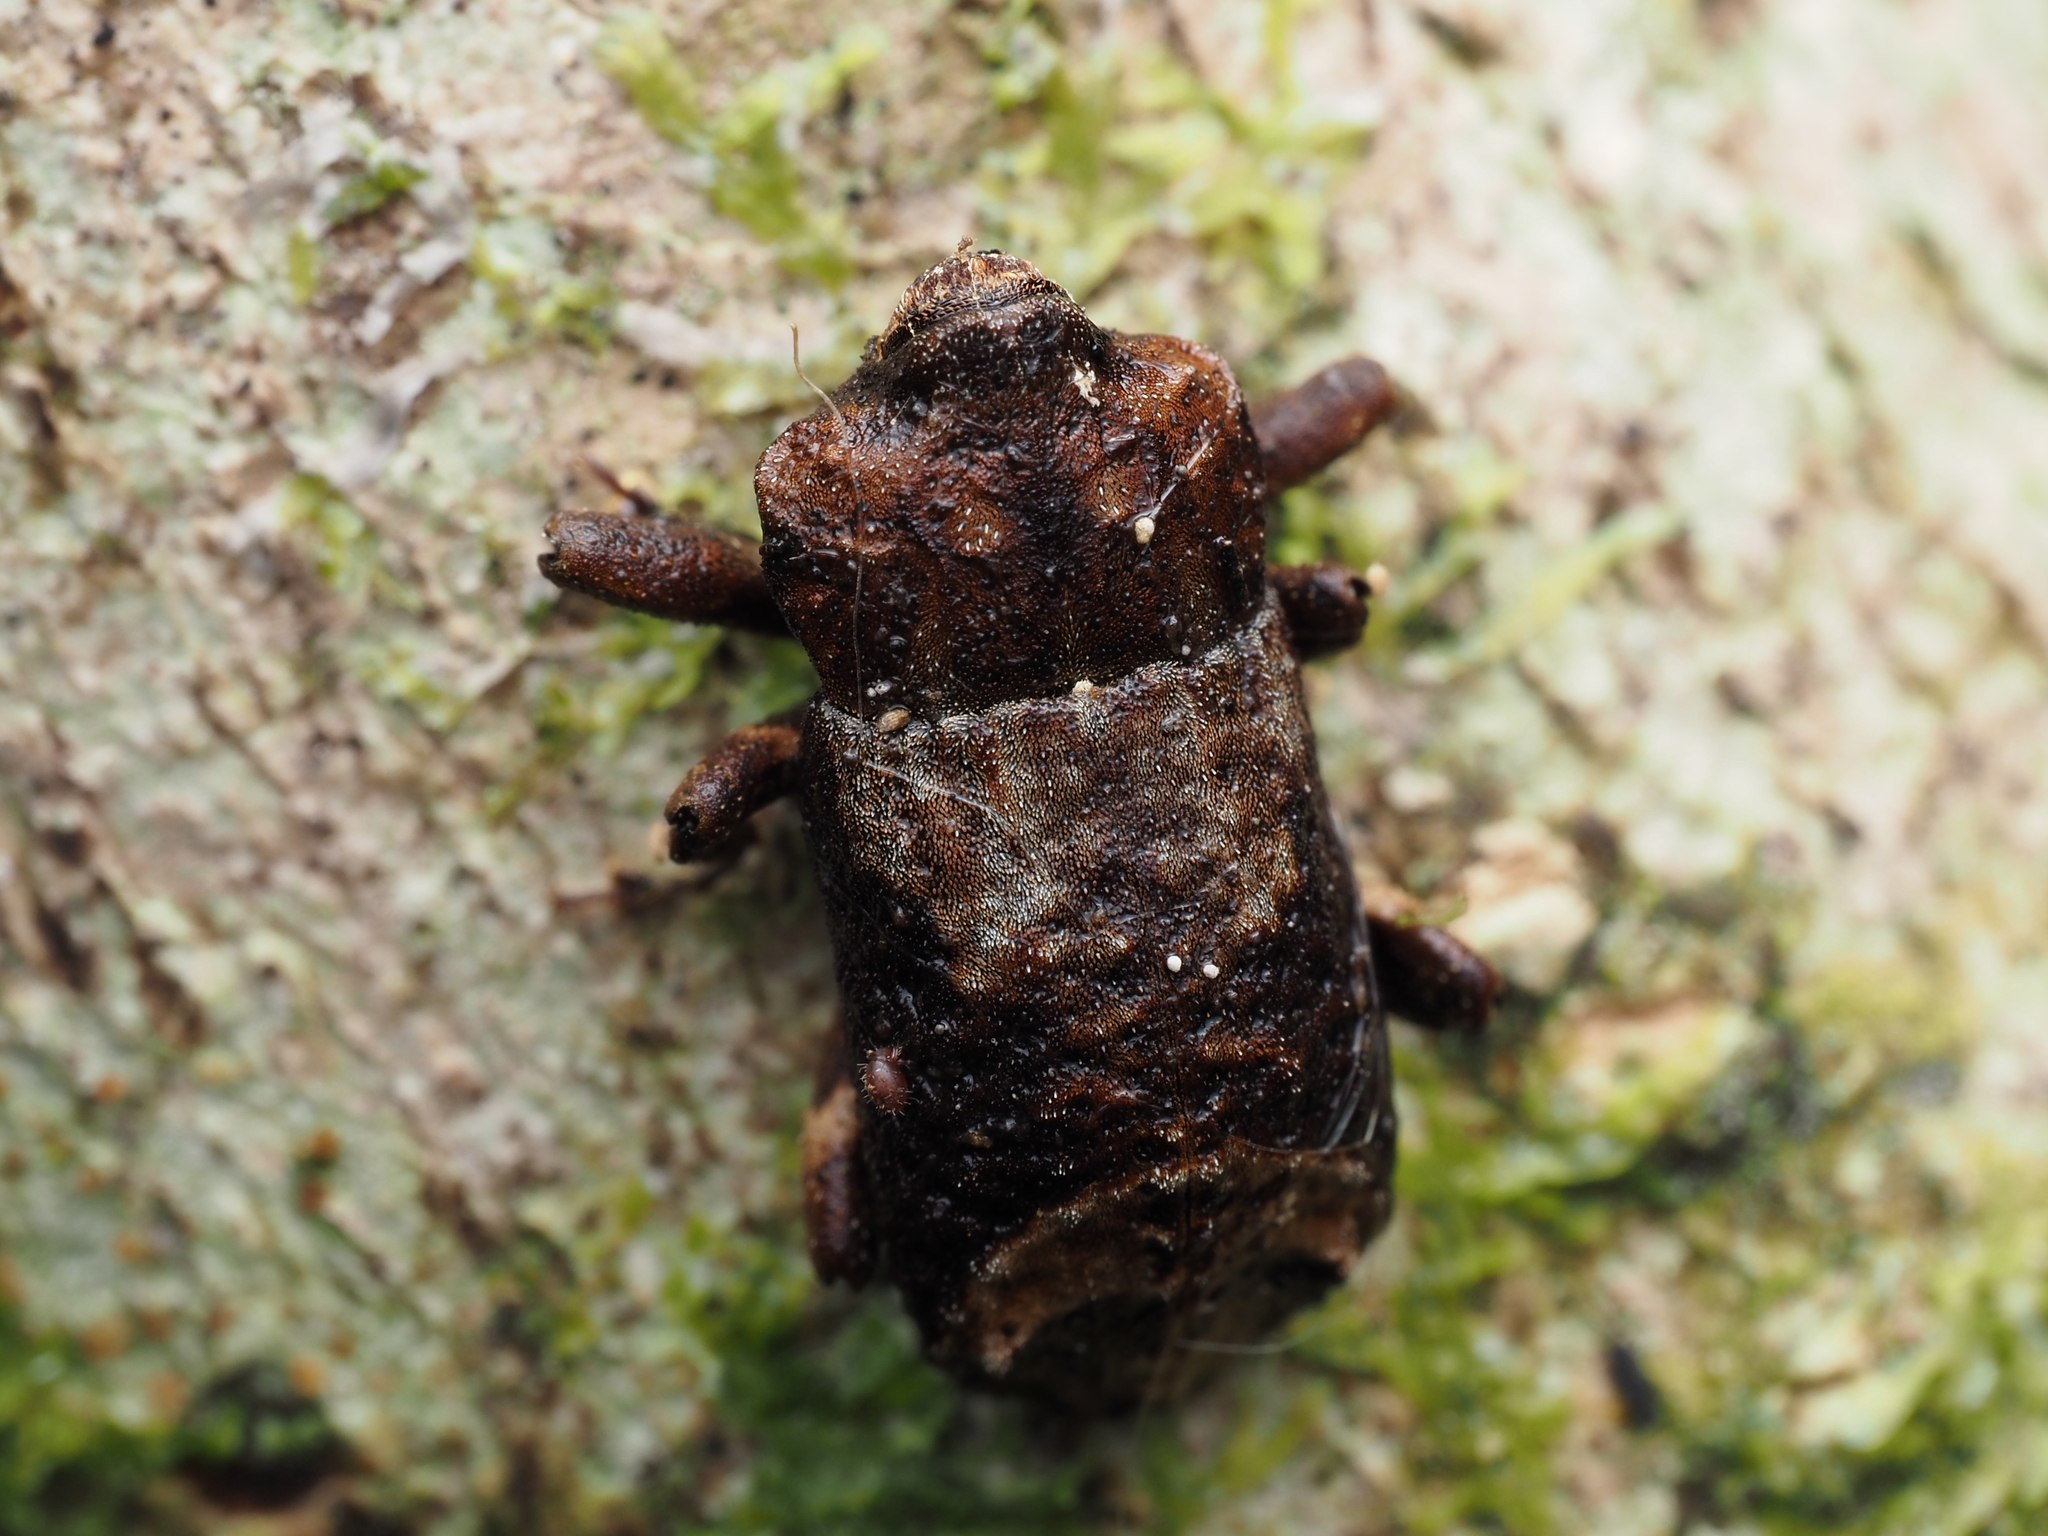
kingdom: Animalia
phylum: Arthropoda
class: Insecta
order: Coleoptera
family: Curculionidae
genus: Ectopsis
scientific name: Ectopsis ferrugalis
